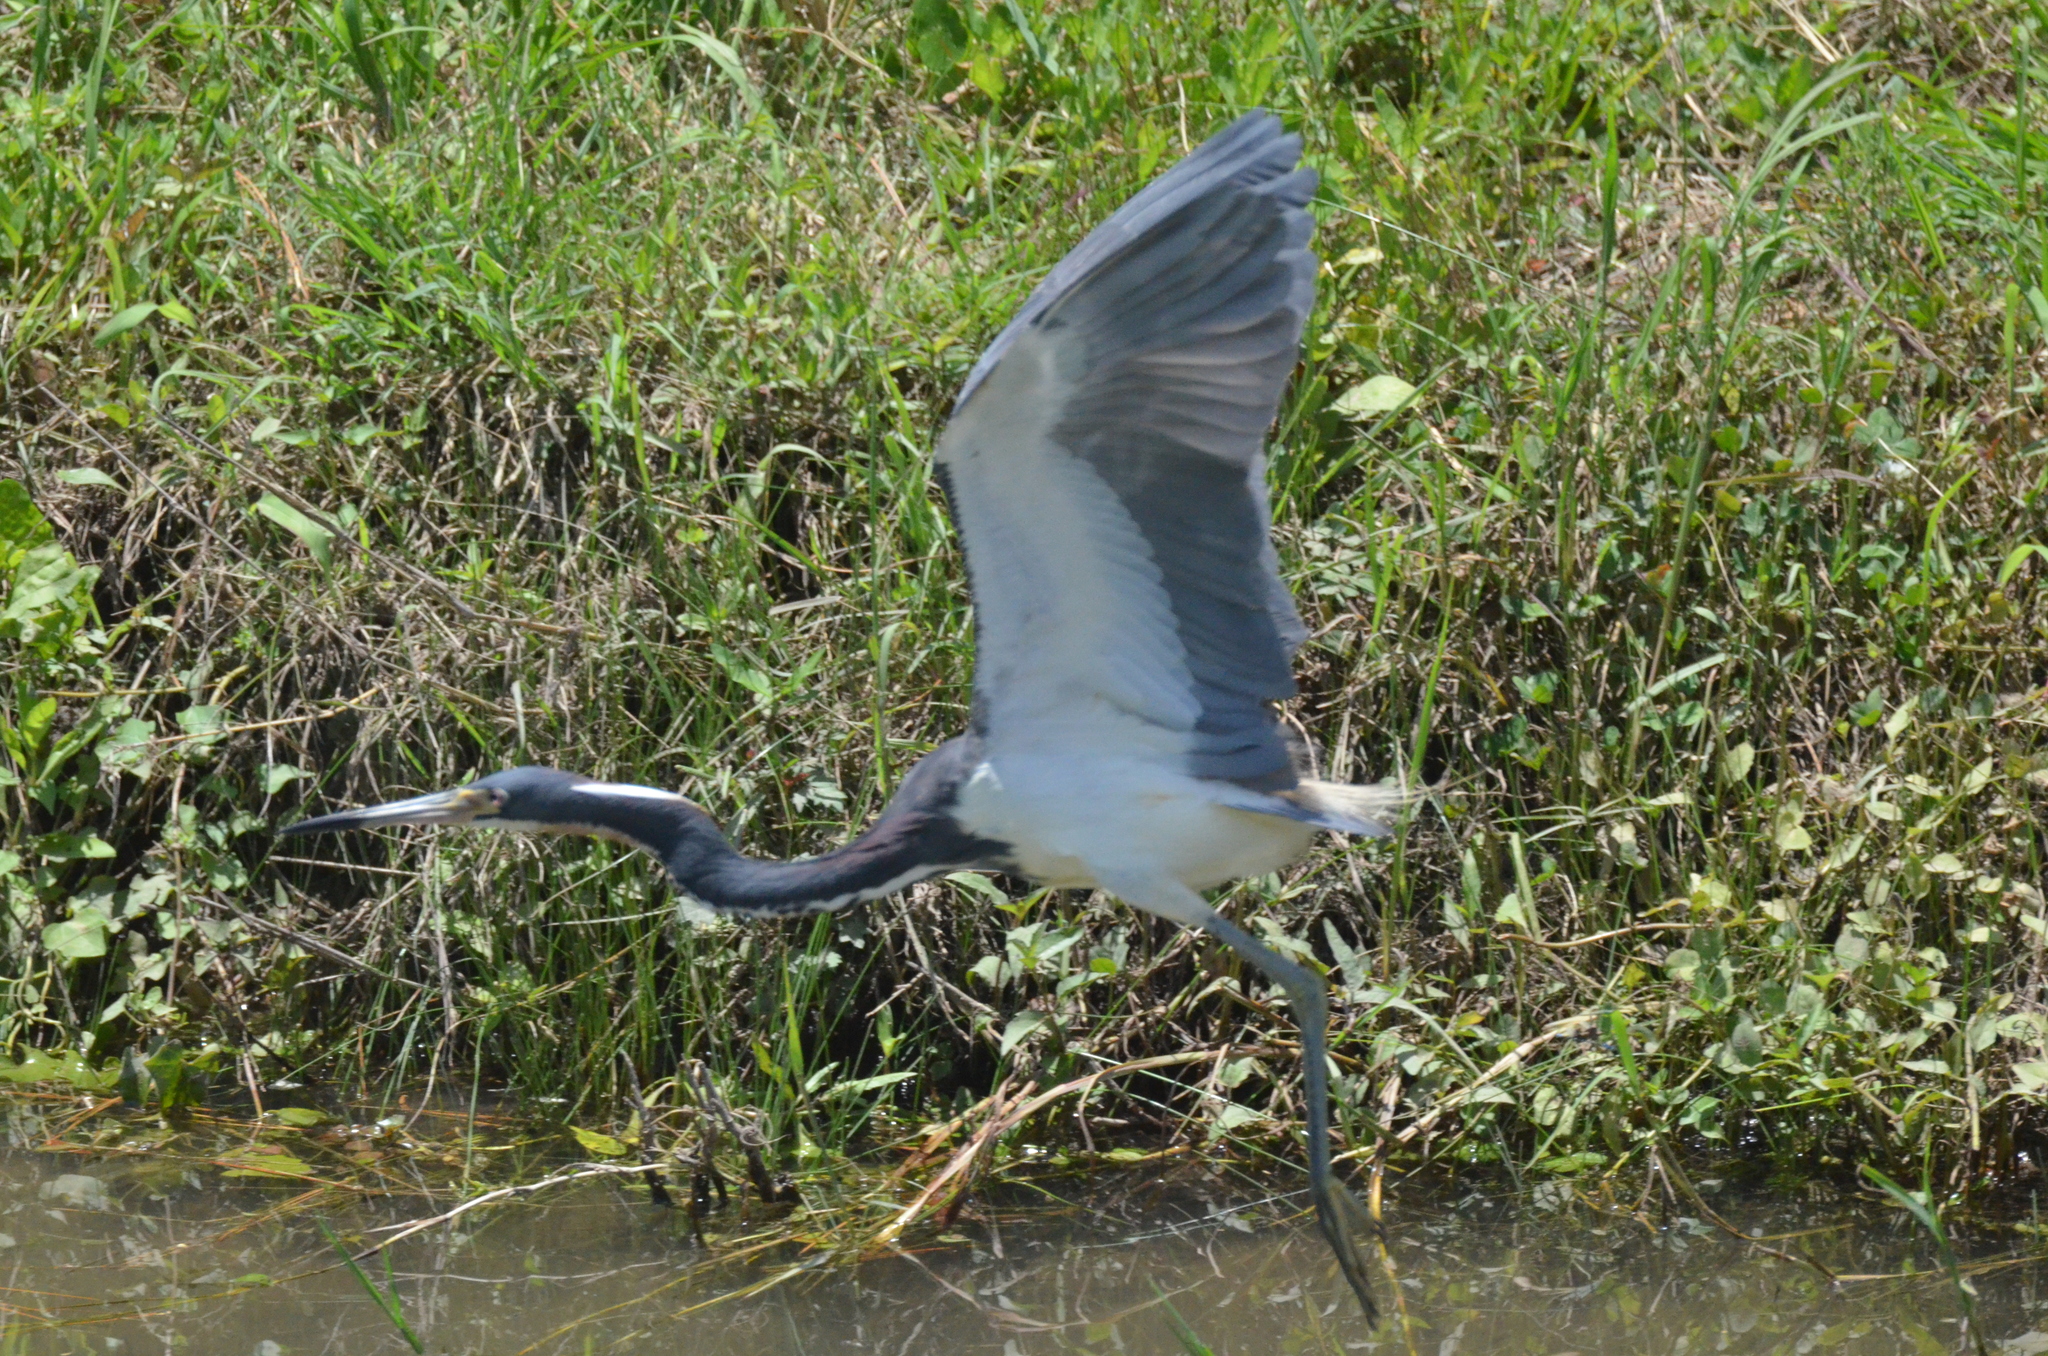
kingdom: Animalia
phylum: Chordata
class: Aves
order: Pelecaniformes
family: Ardeidae
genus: Egretta
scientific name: Egretta tricolor
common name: Tricolored heron
